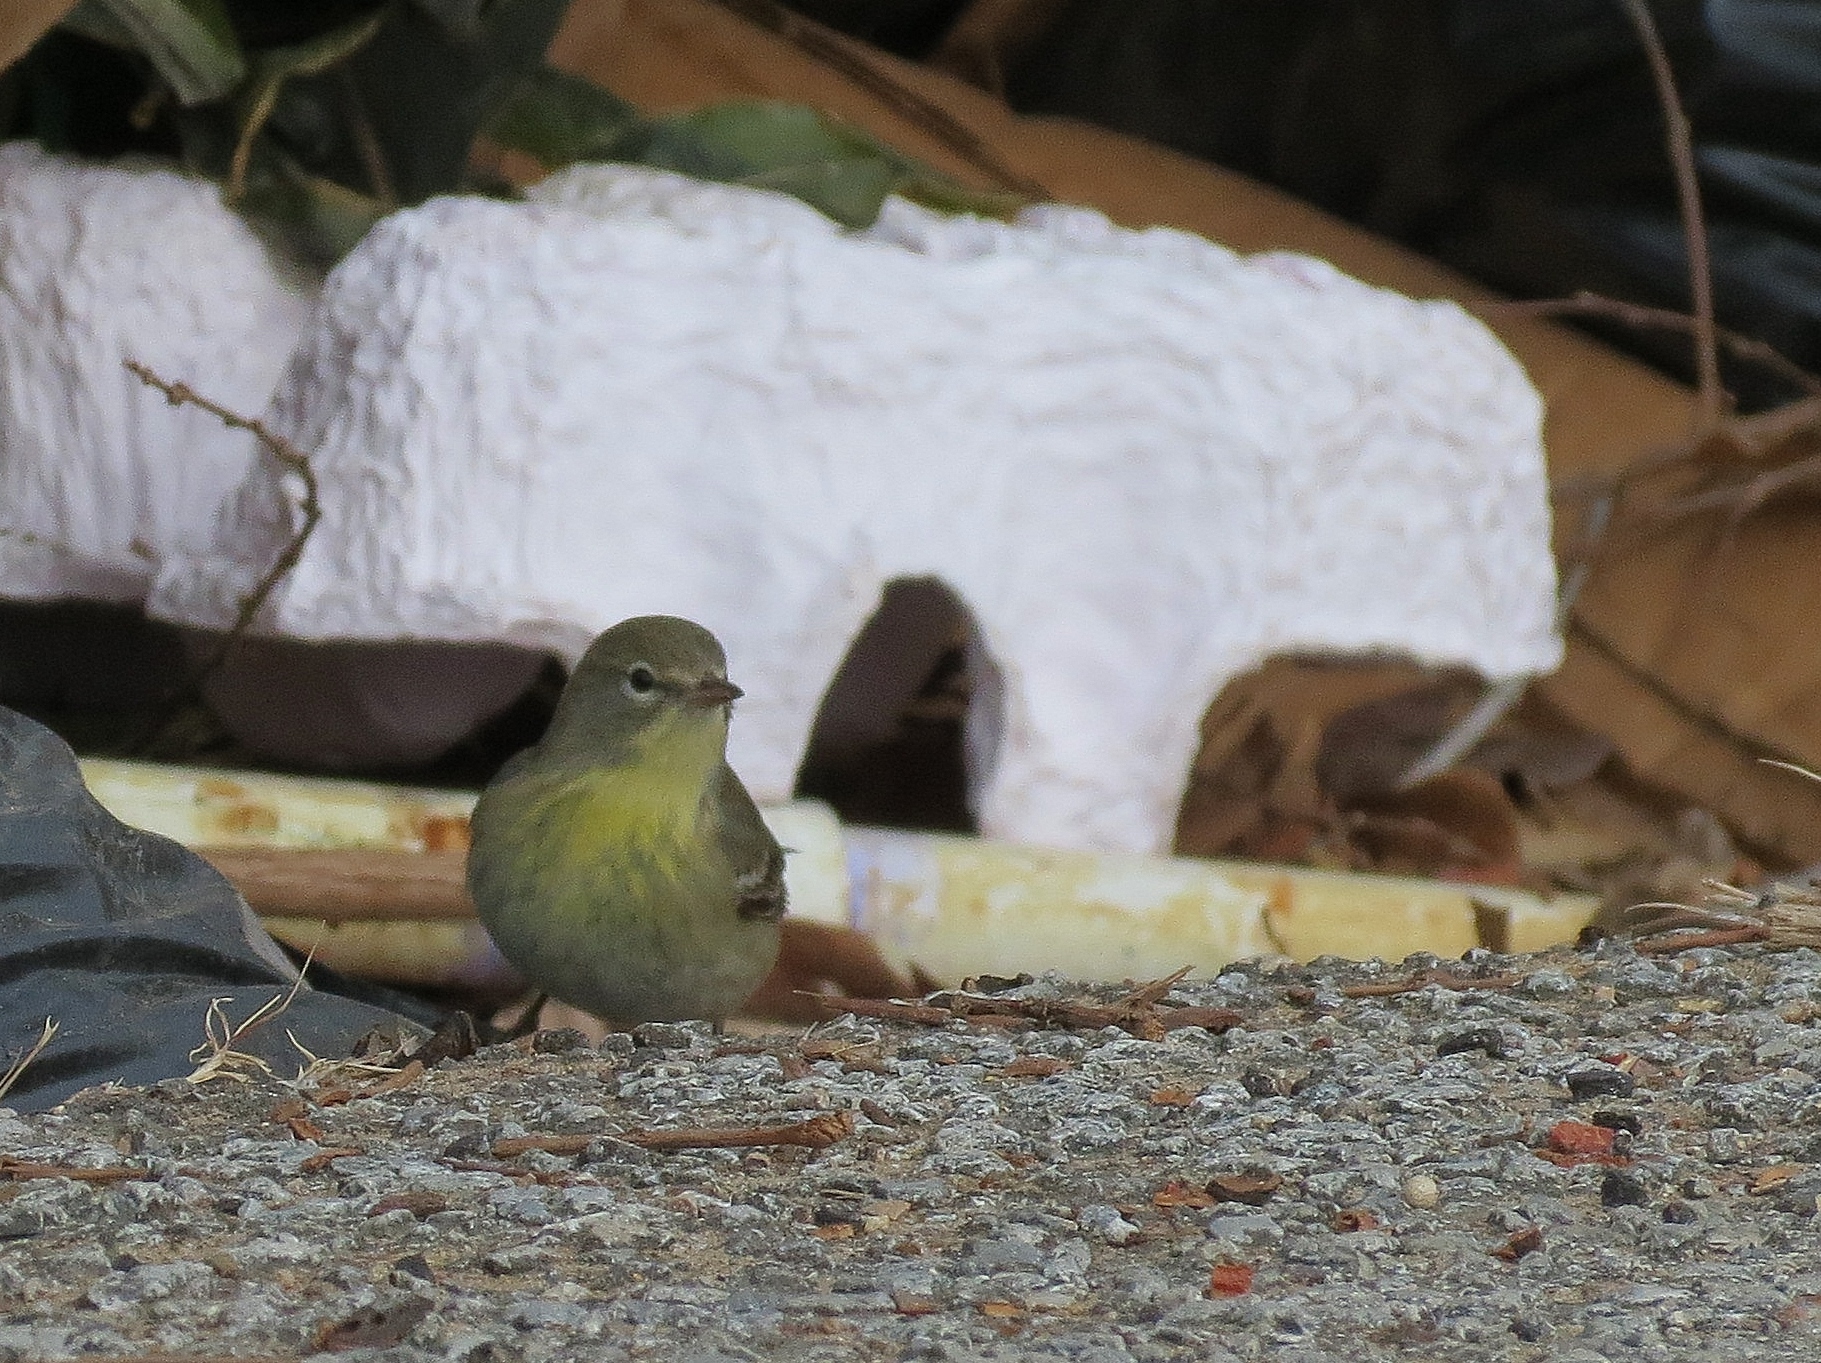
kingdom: Animalia
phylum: Chordata
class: Aves
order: Passeriformes
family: Parulidae
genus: Setophaga
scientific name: Setophaga pinus
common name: Pine warbler
